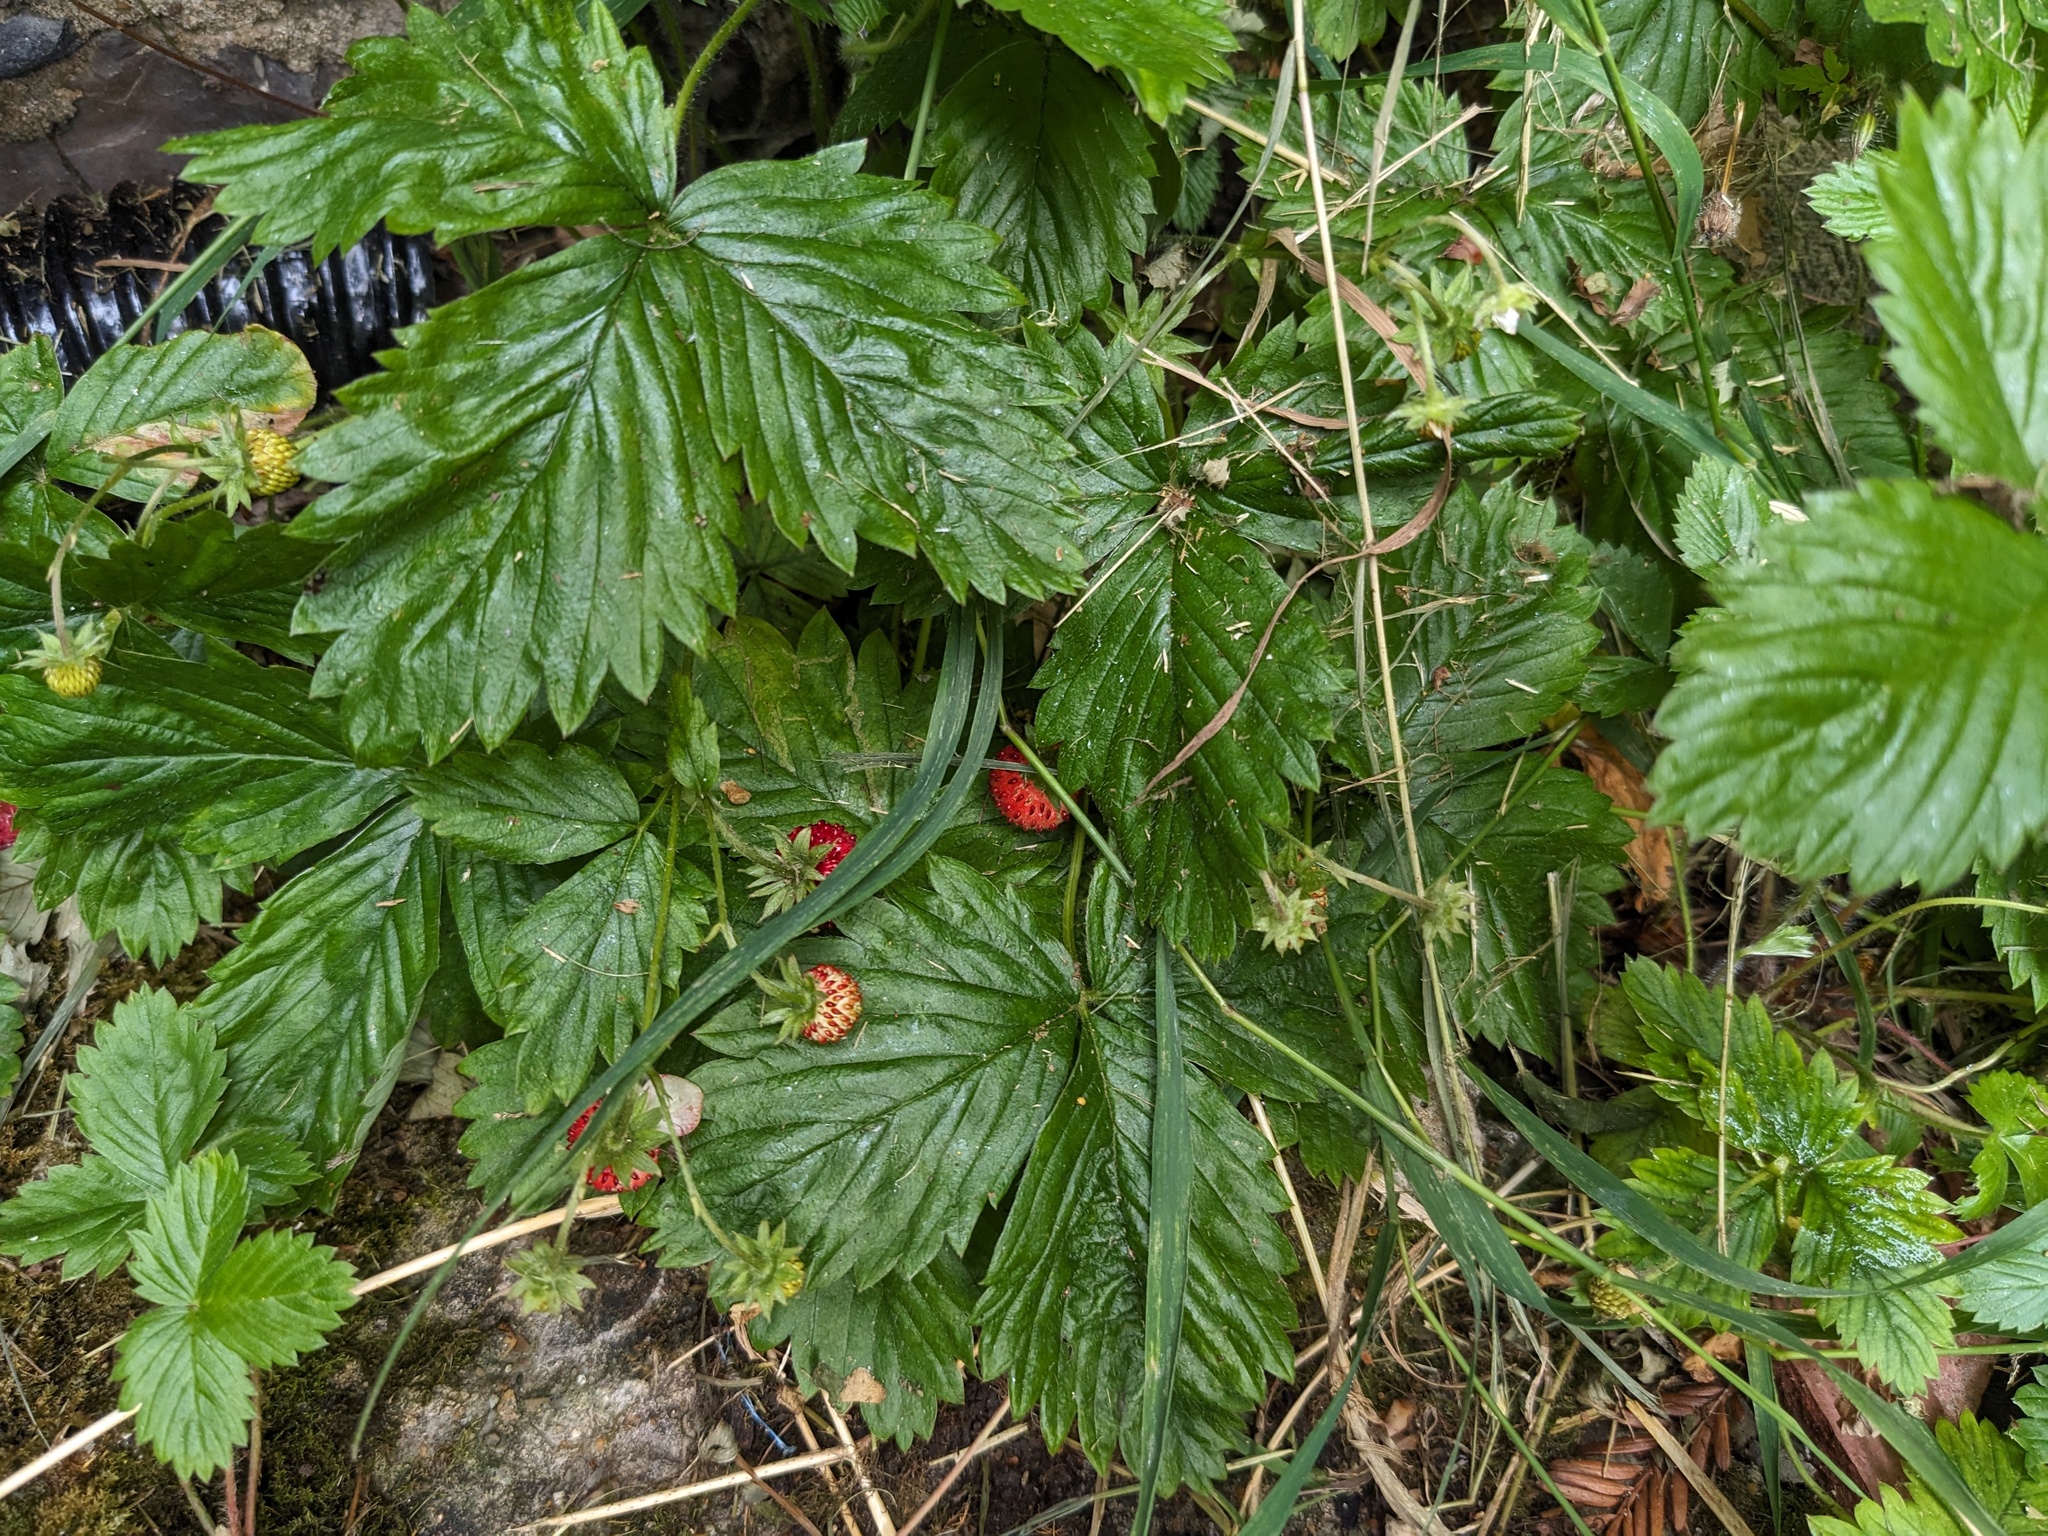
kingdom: Plantae
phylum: Tracheophyta
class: Magnoliopsida
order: Rosales
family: Rosaceae
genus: Fragaria
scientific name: Fragaria vesca
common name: Wild strawberry
